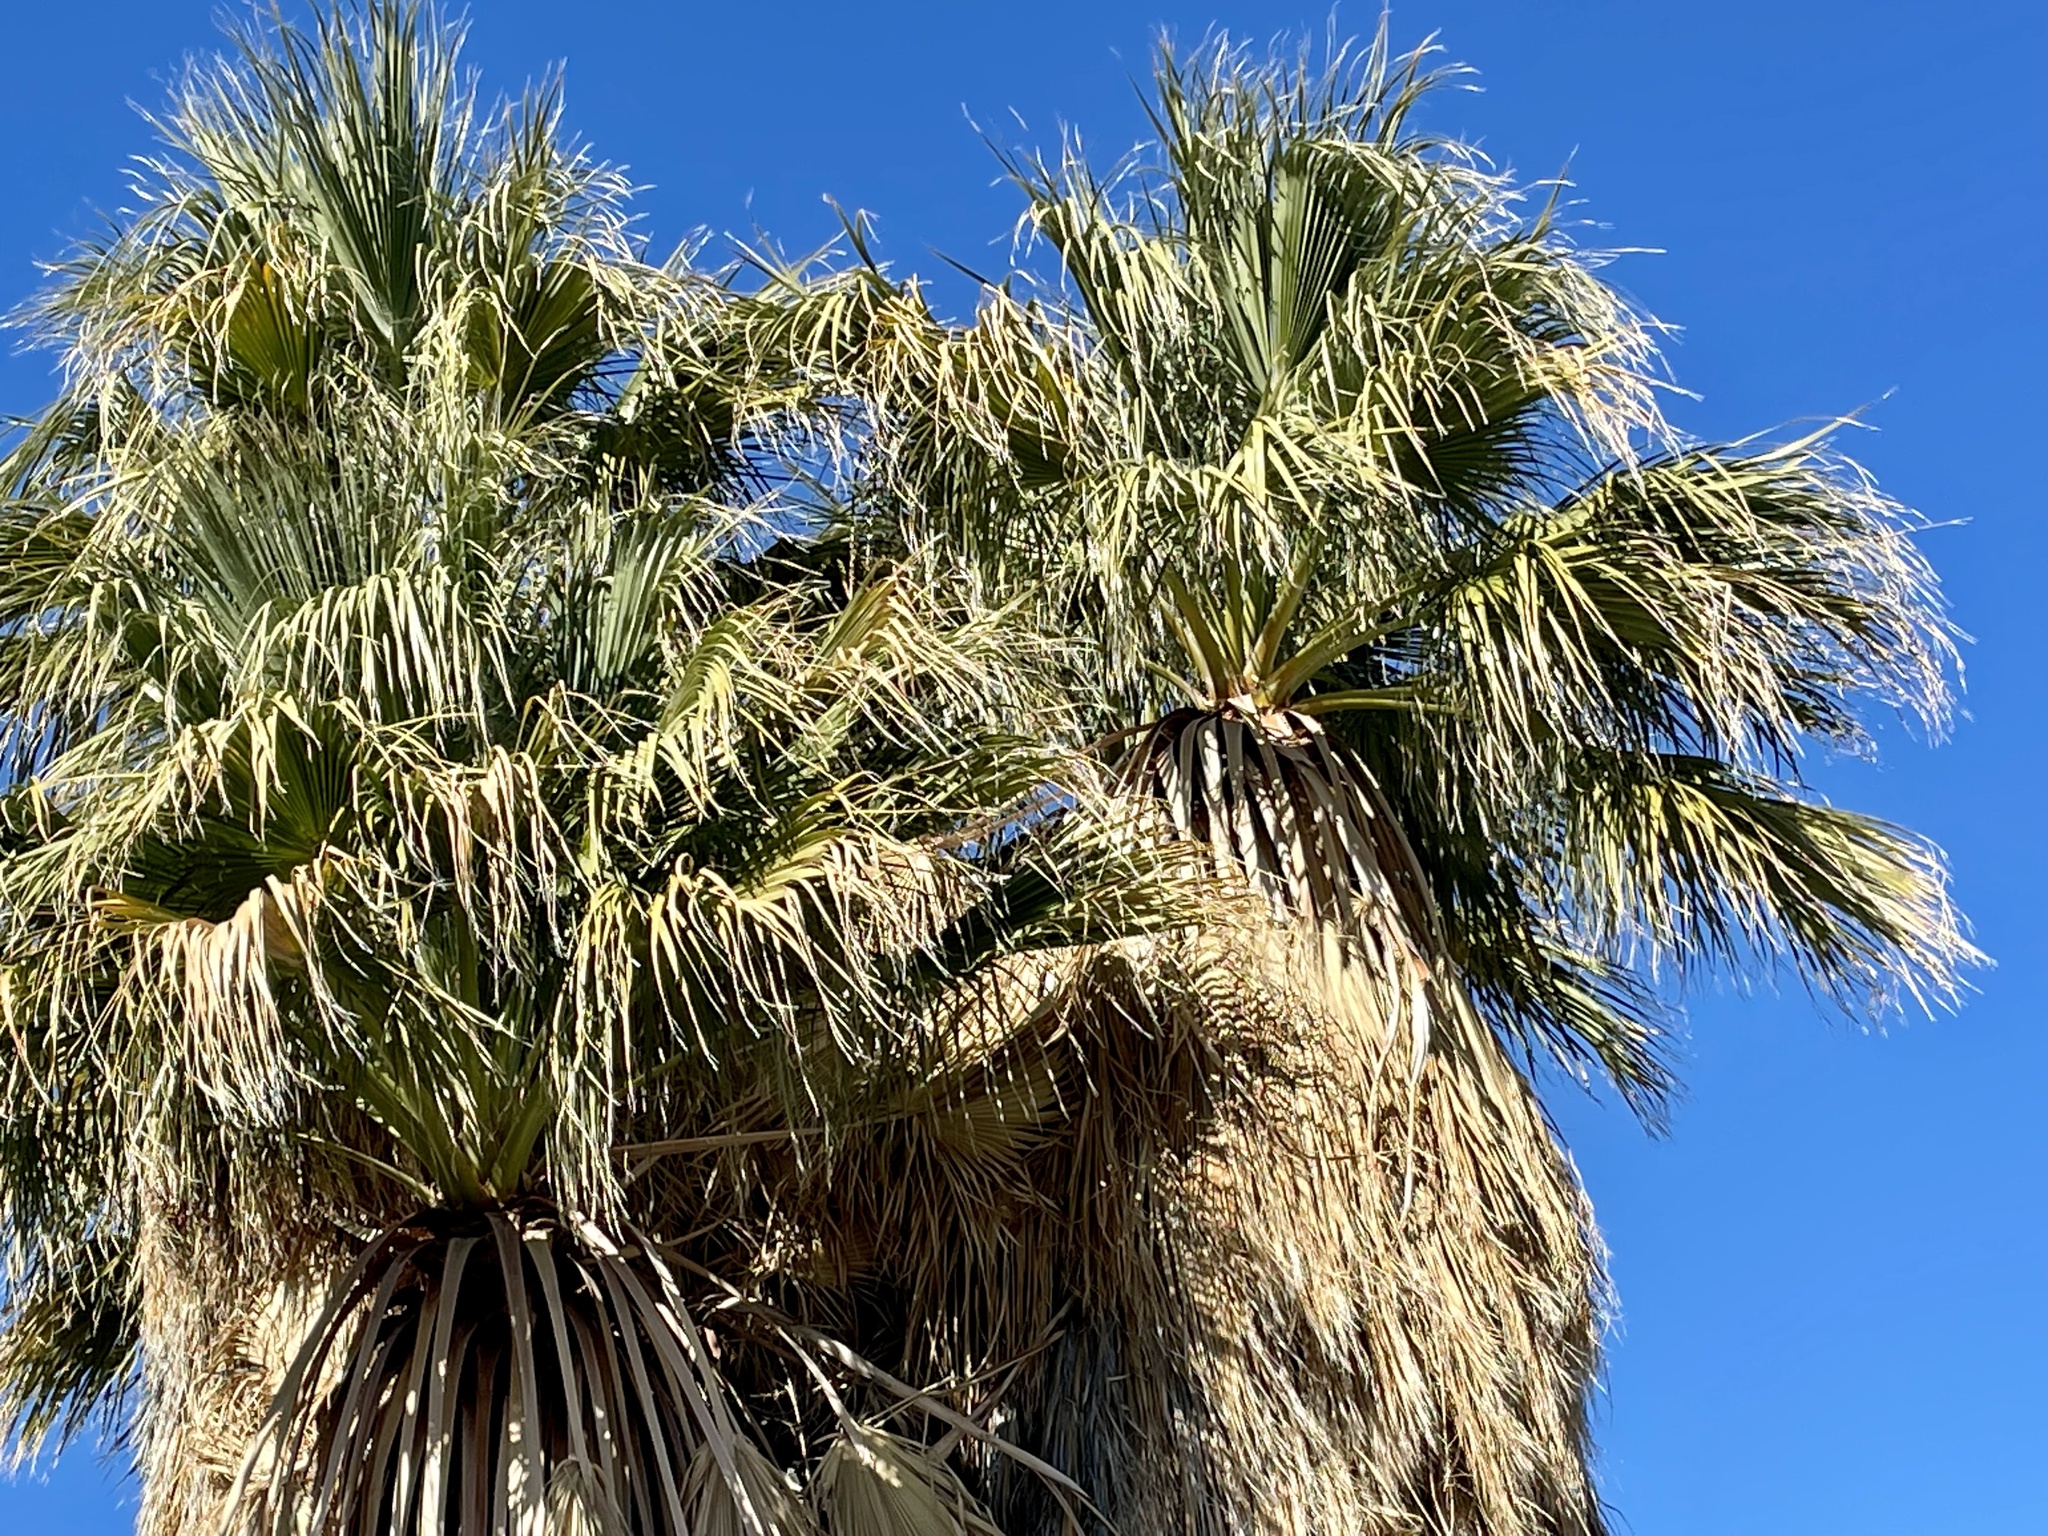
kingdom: Plantae
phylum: Tracheophyta
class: Liliopsida
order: Arecales
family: Arecaceae
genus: Washingtonia
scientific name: Washingtonia filifera
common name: California fan palm
